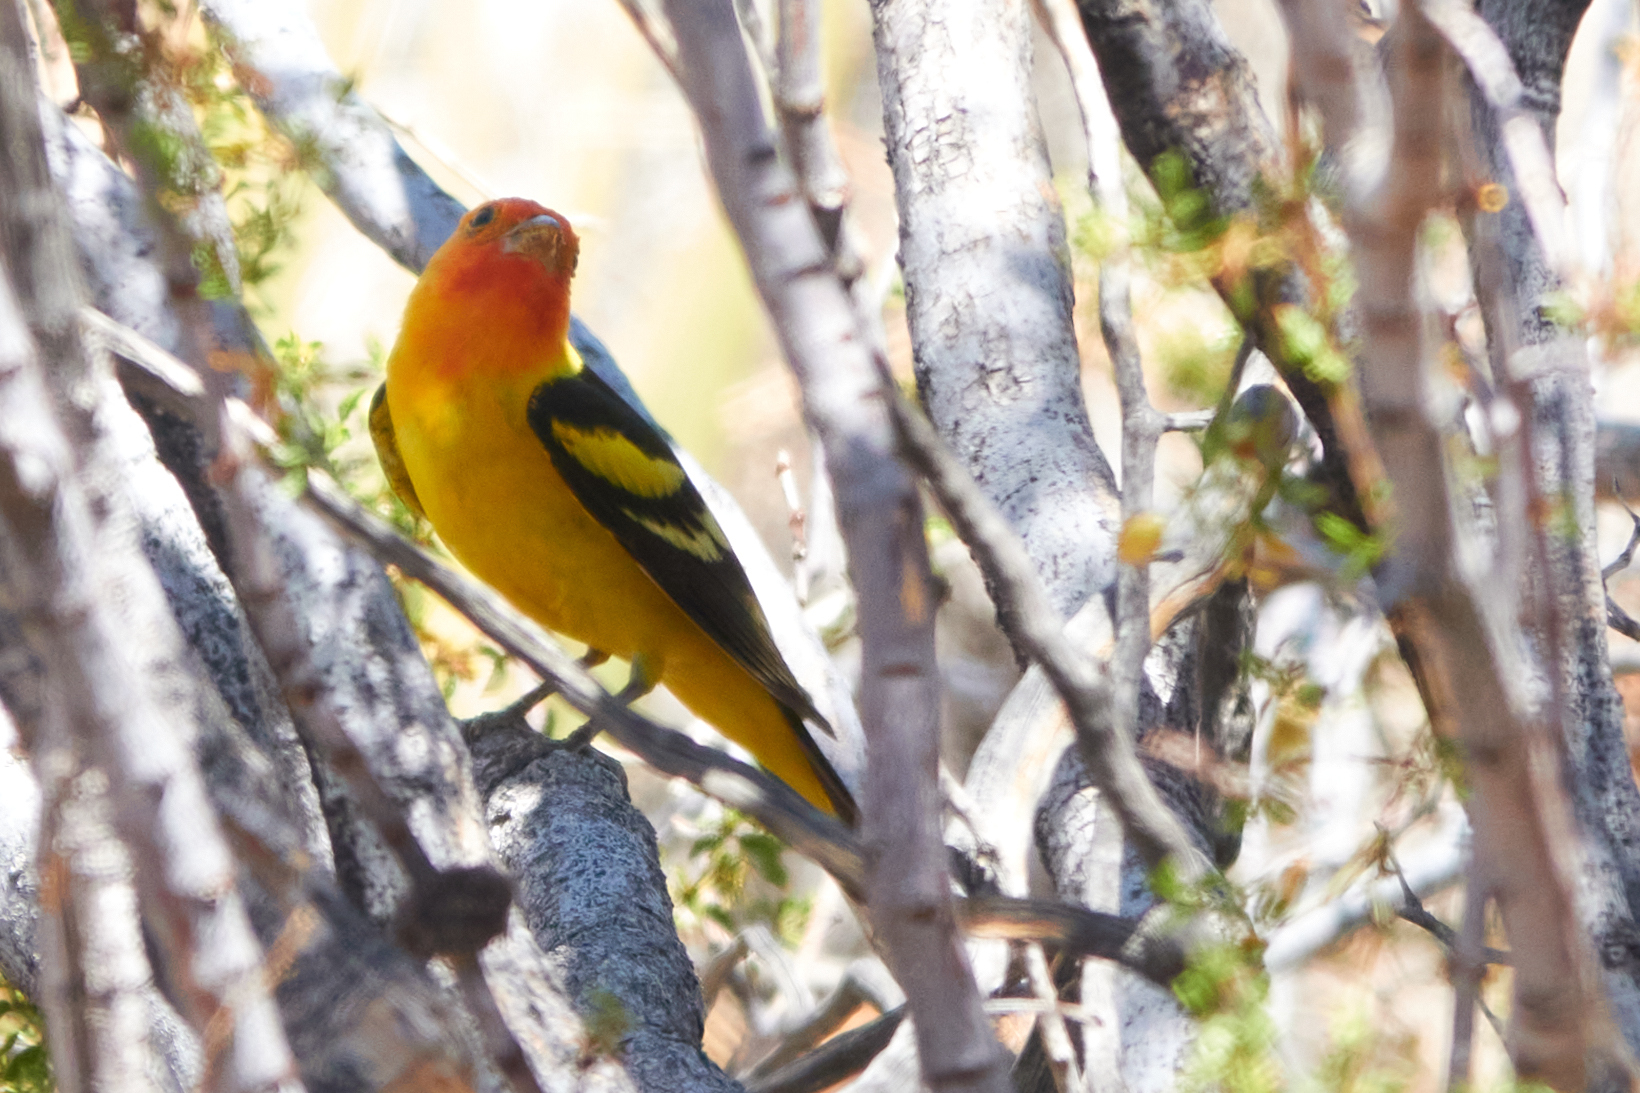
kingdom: Animalia
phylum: Chordata
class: Aves
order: Passeriformes
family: Cardinalidae
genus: Piranga
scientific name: Piranga ludoviciana
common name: Western tanager
